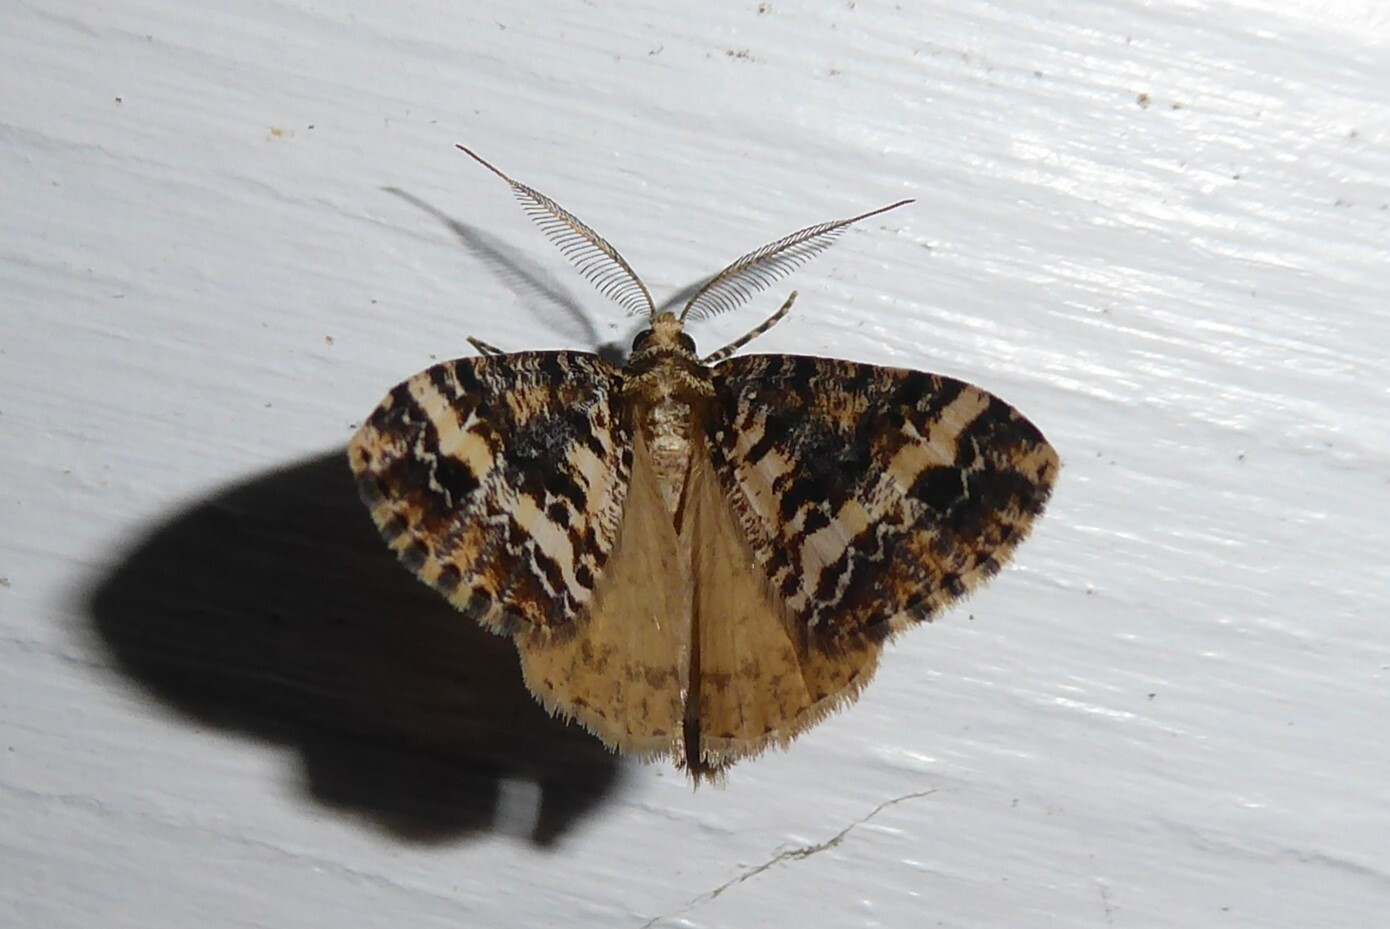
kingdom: Animalia
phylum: Arthropoda
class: Insecta
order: Lepidoptera
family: Geometridae
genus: Pseudocoremia
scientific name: Pseudocoremia leucelaea
